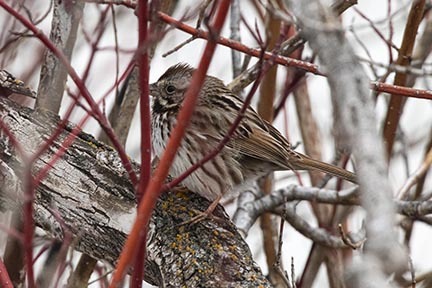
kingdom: Animalia
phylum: Chordata
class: Aves
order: Passeriformes
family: Passerellidae
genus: Melospiza
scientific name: Melospiza melodia
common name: Song sparrow
